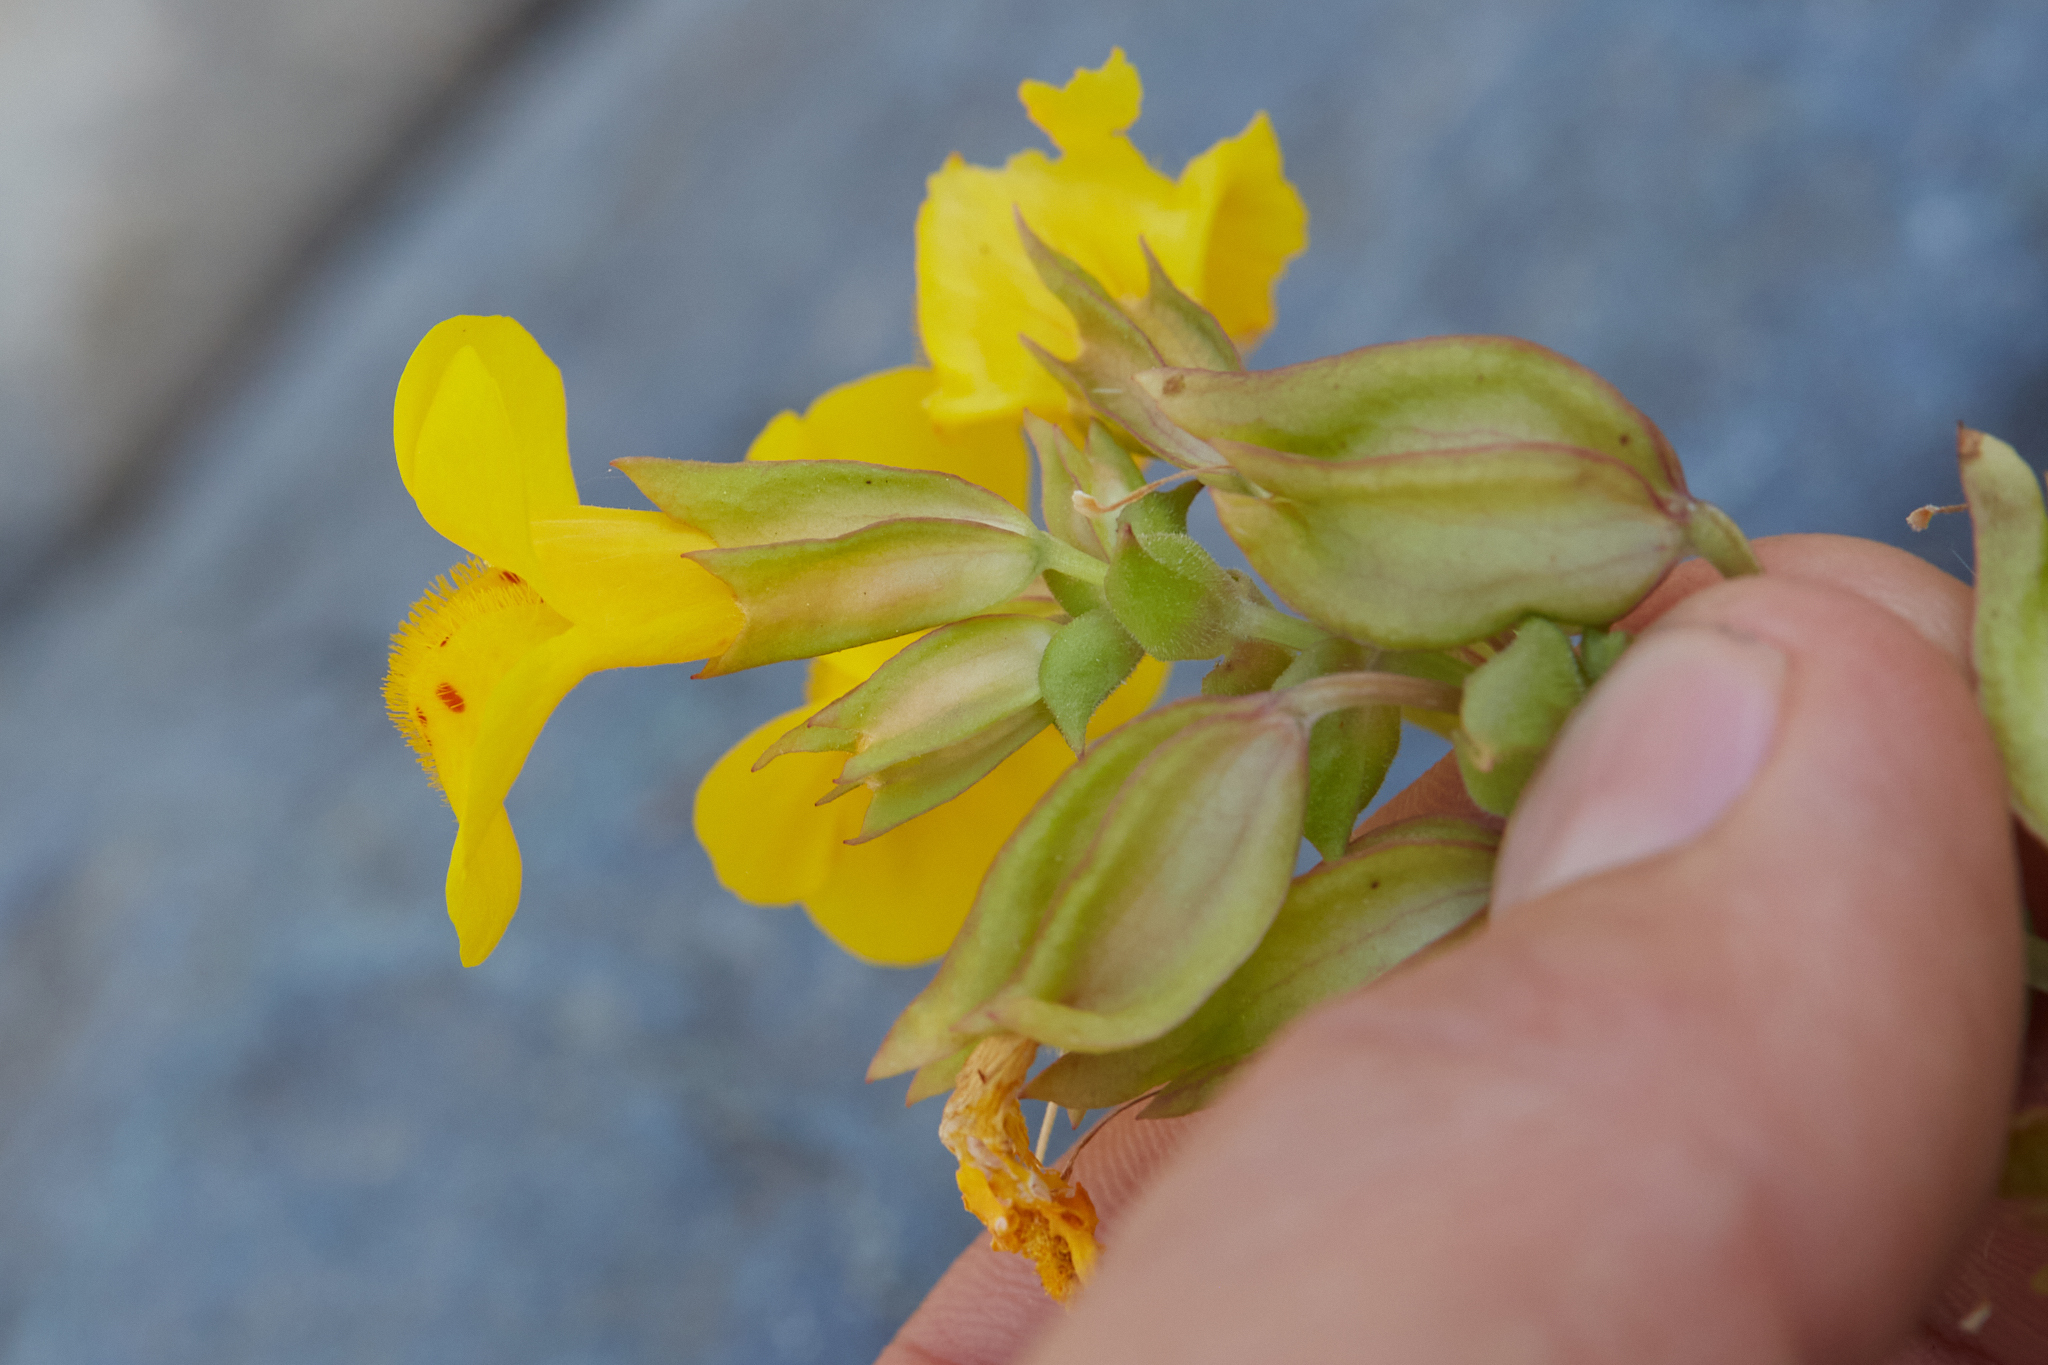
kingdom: Plantae
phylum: Tracheophyta
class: Magnoliopsida
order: Lamiales
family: Phrymaceae
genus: Erythranthe
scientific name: Erythranthe guttata
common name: Monkeyflower
